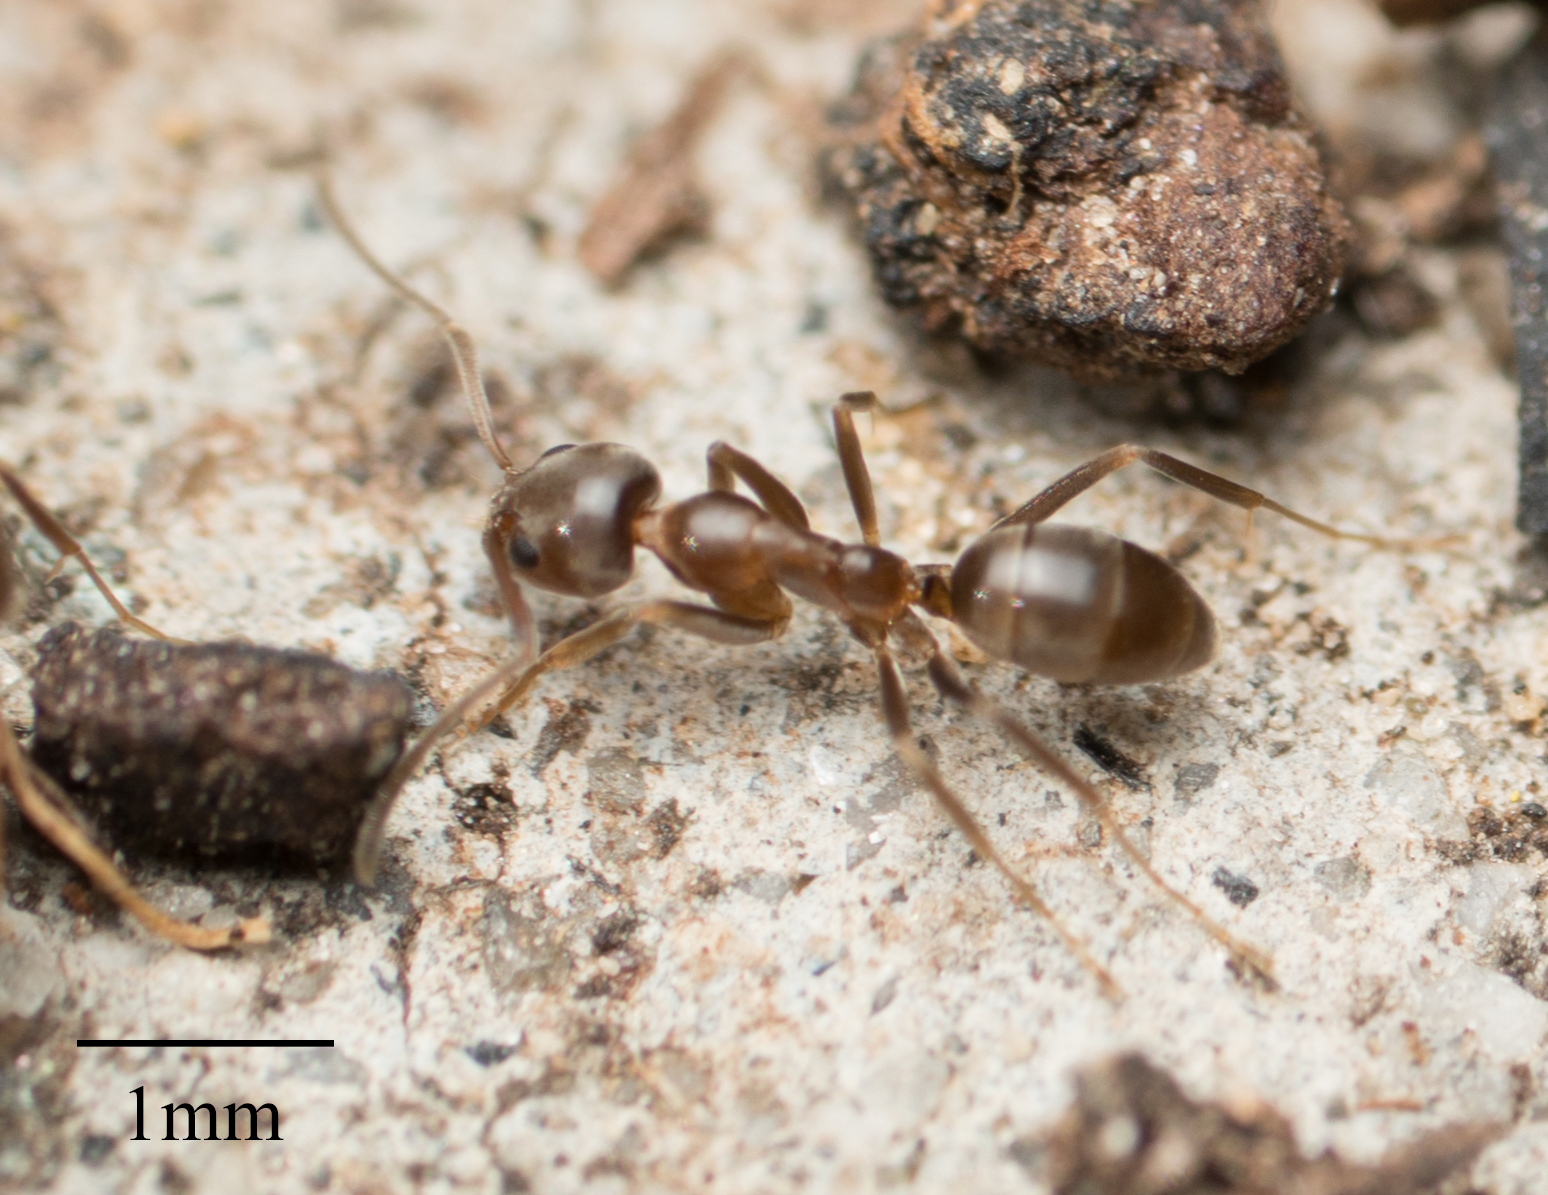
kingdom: Animalia
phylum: Arthropoda
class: Insecta
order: Hymenoptera
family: Formicidae
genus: Linepithema
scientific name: Linepithema humile
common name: Argentine ant
